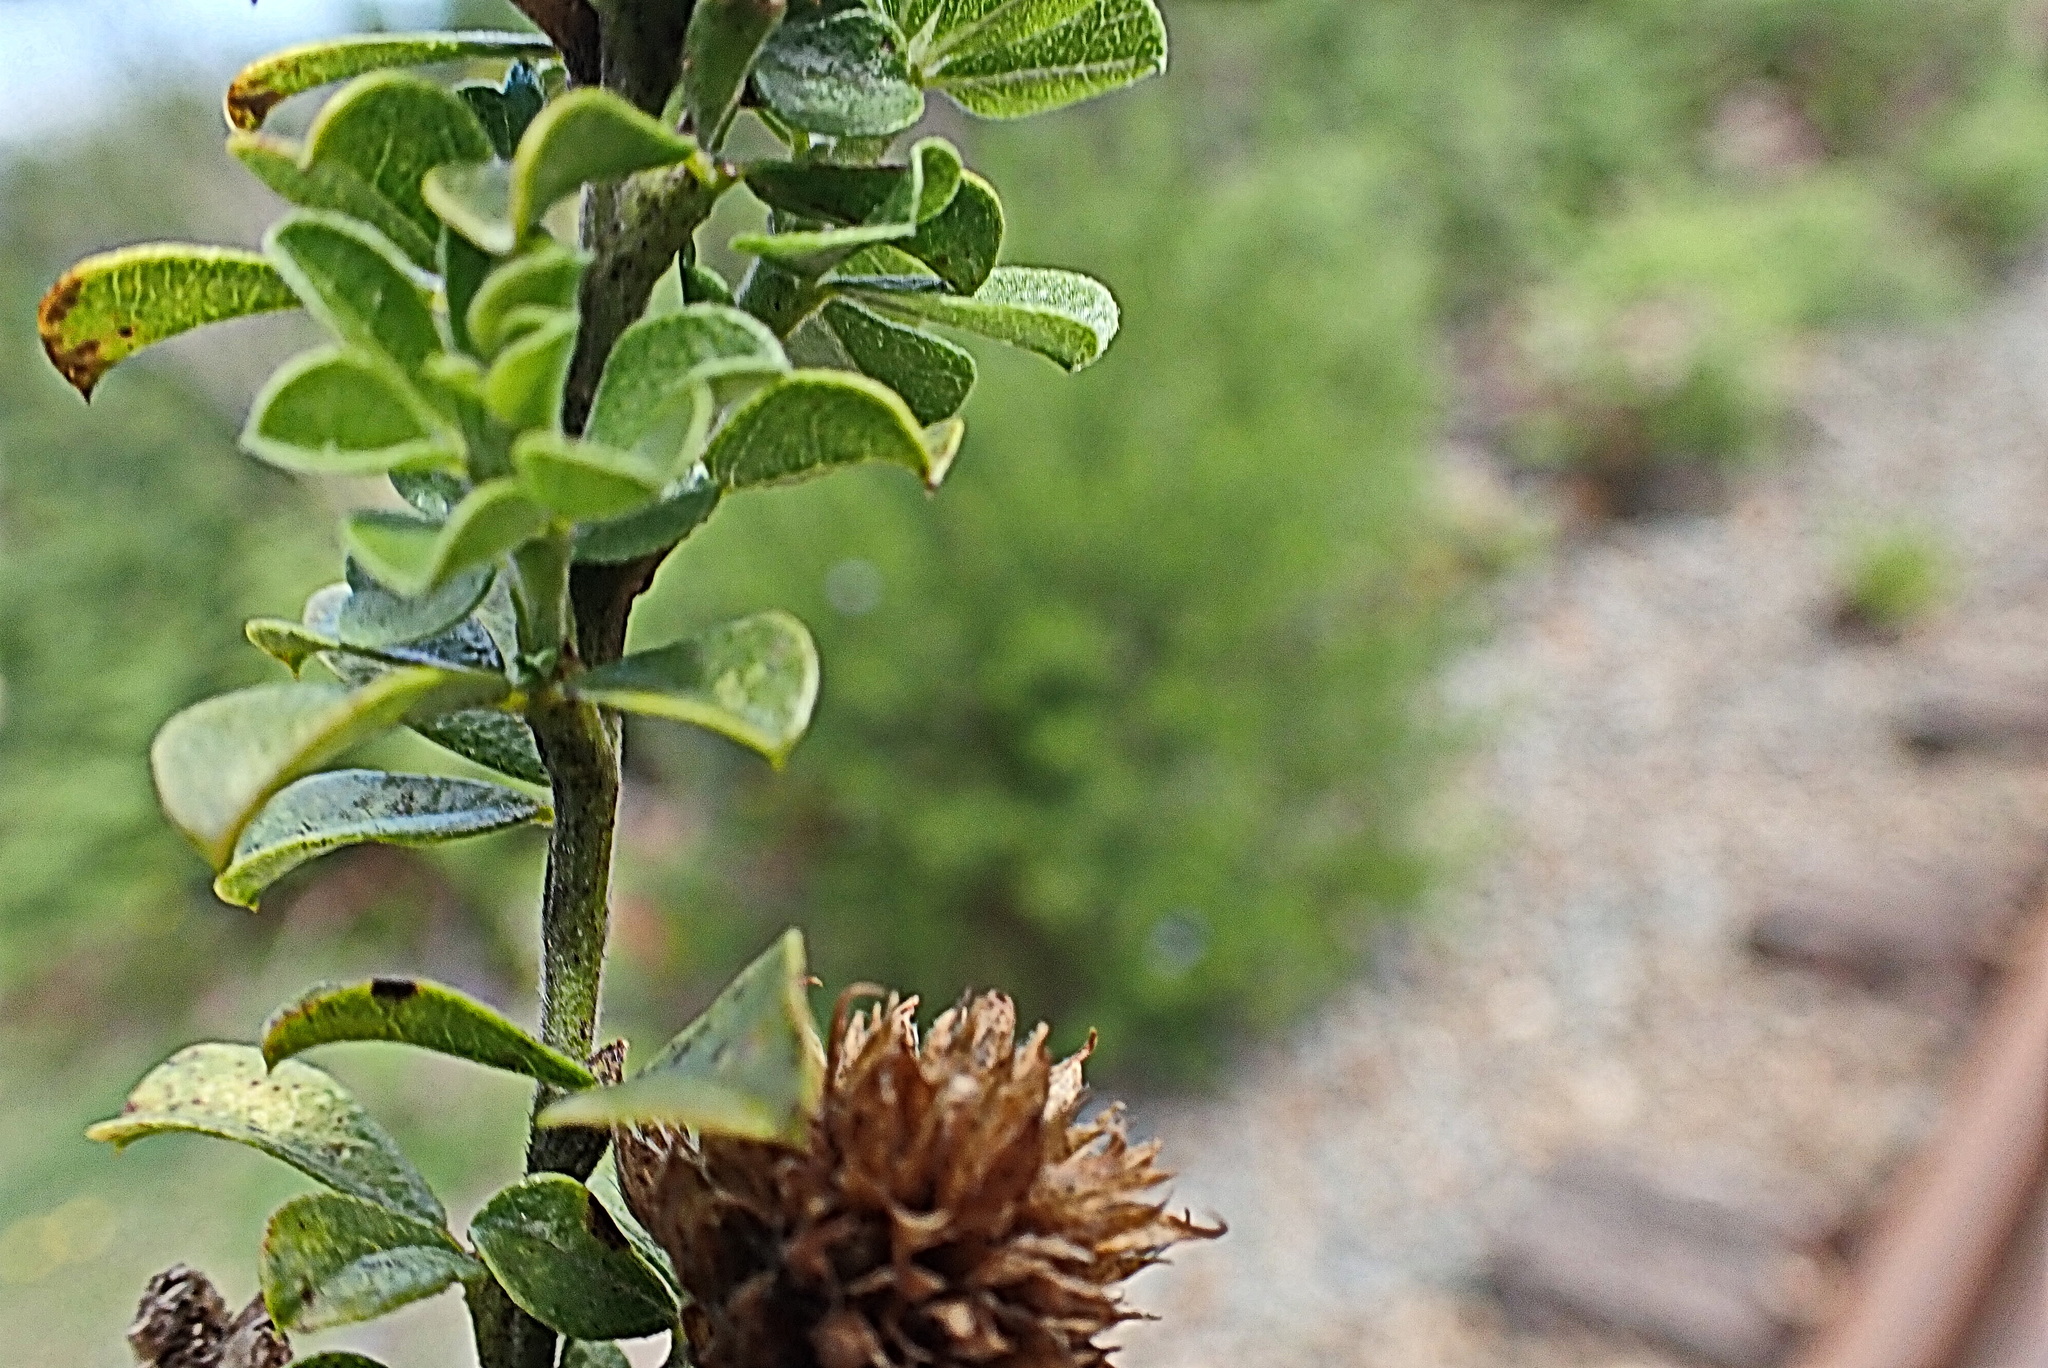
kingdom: Plantae
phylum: Tracheophyta
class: Magnoliopsida
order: Fabales
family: Fabaceae
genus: Psoralea
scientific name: Psoralea stachyera
